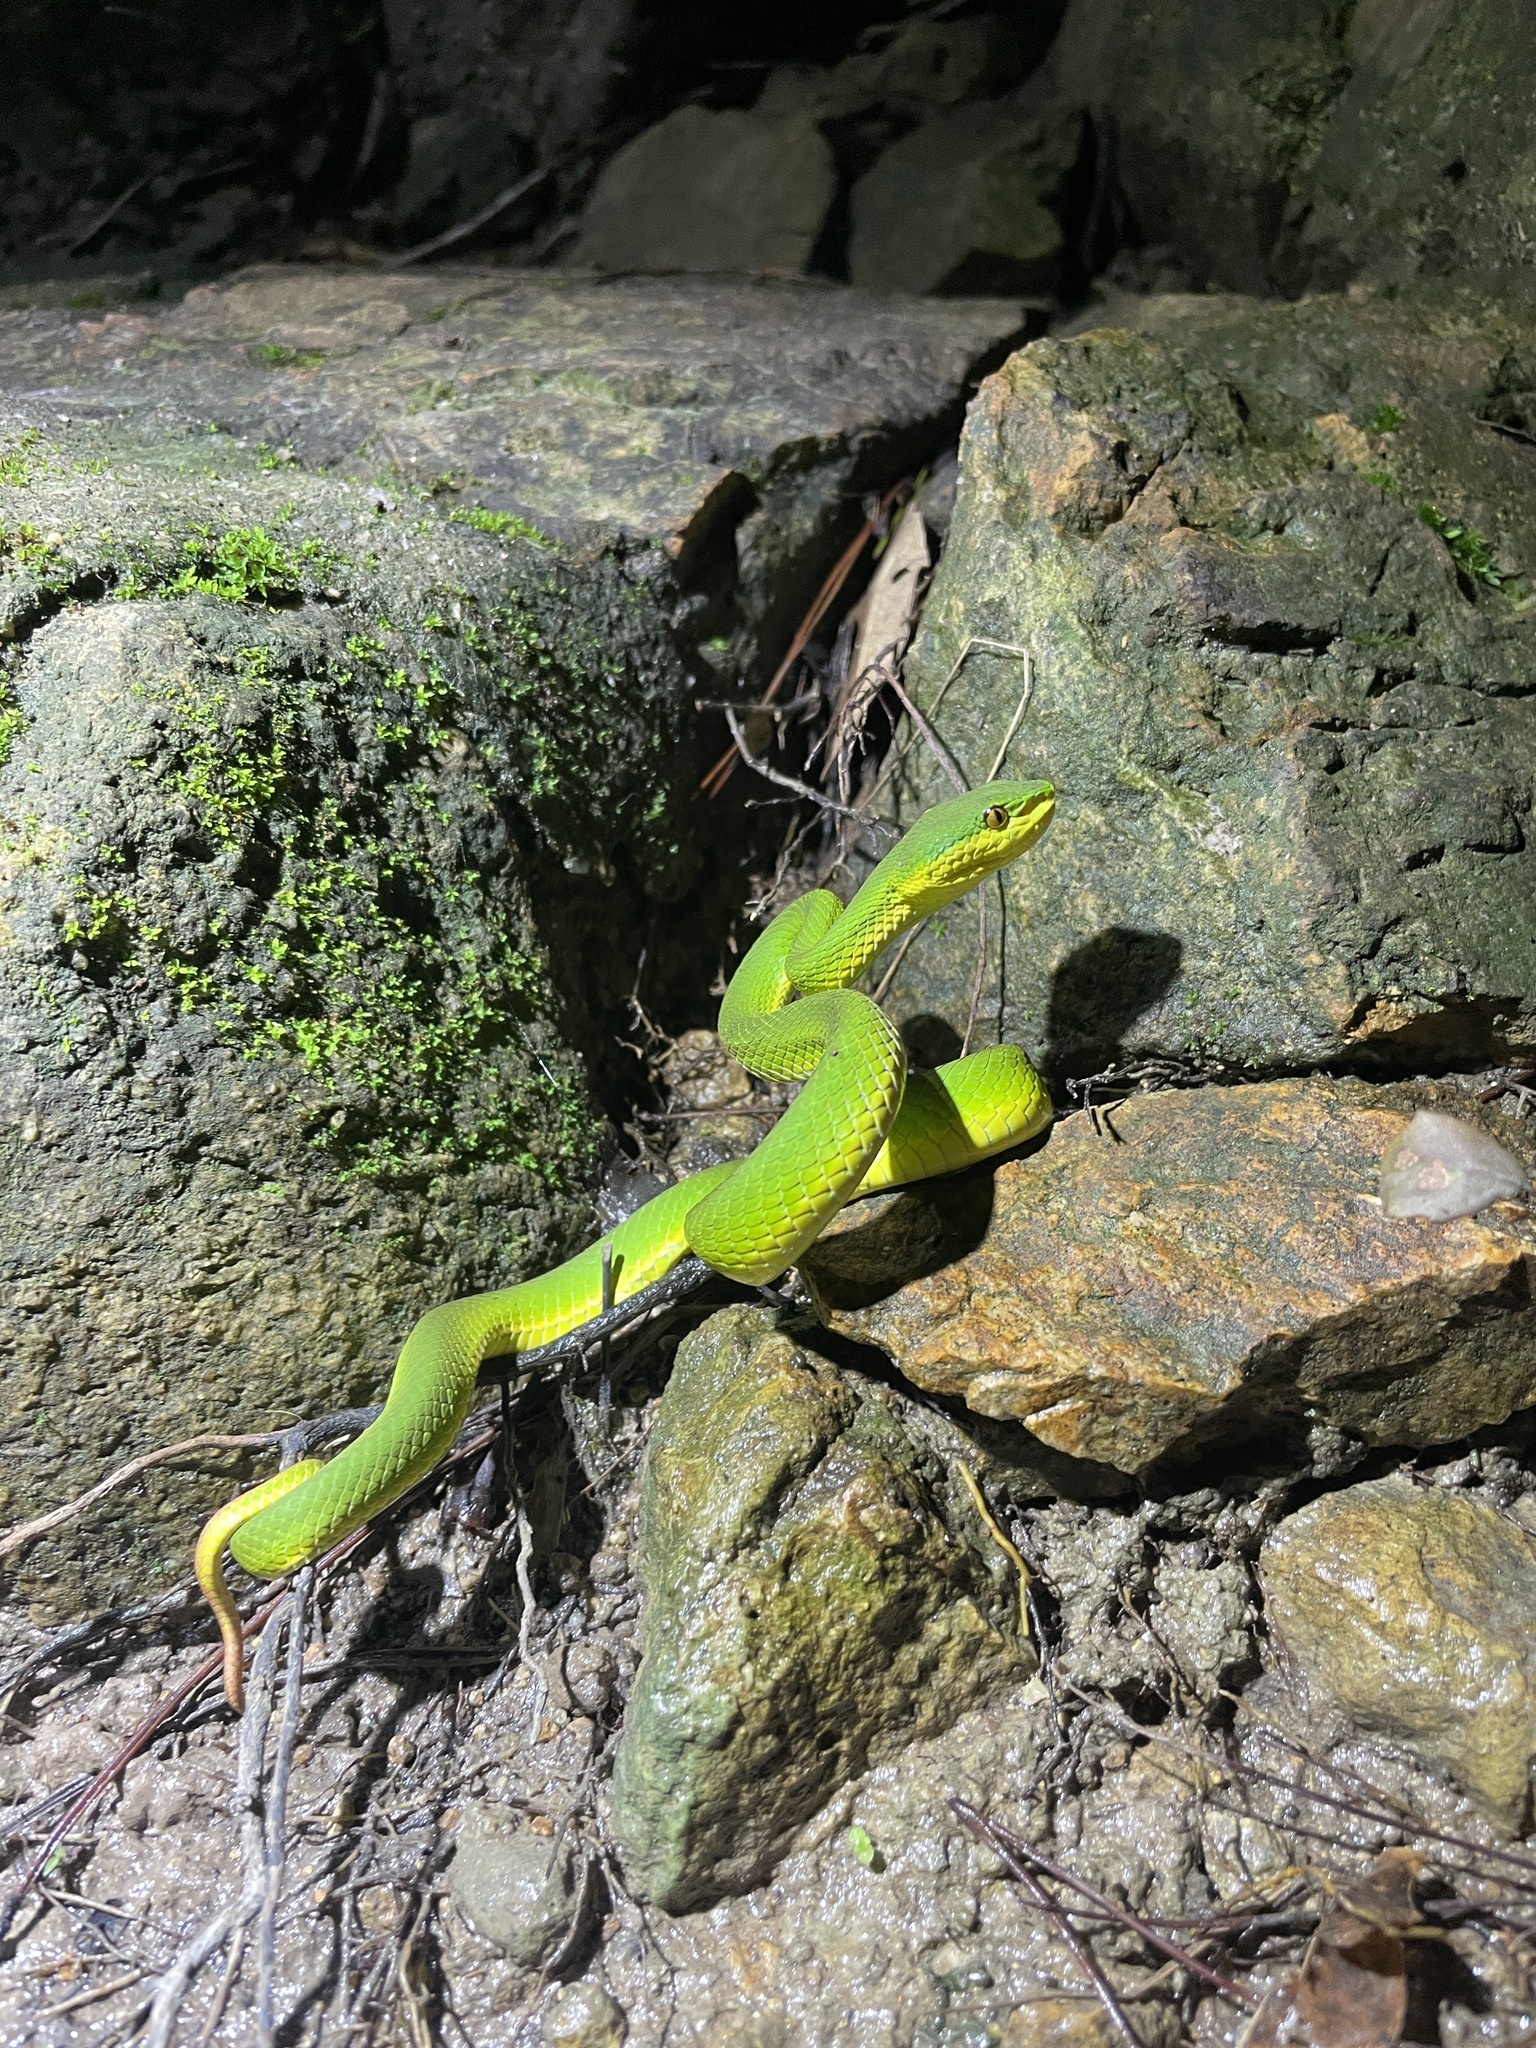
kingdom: Animalia
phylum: Chordata
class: Squamata
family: Viperidae
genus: Trimeresurus
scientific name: Trimeresurus albolabris
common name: White-lipped pitviper
